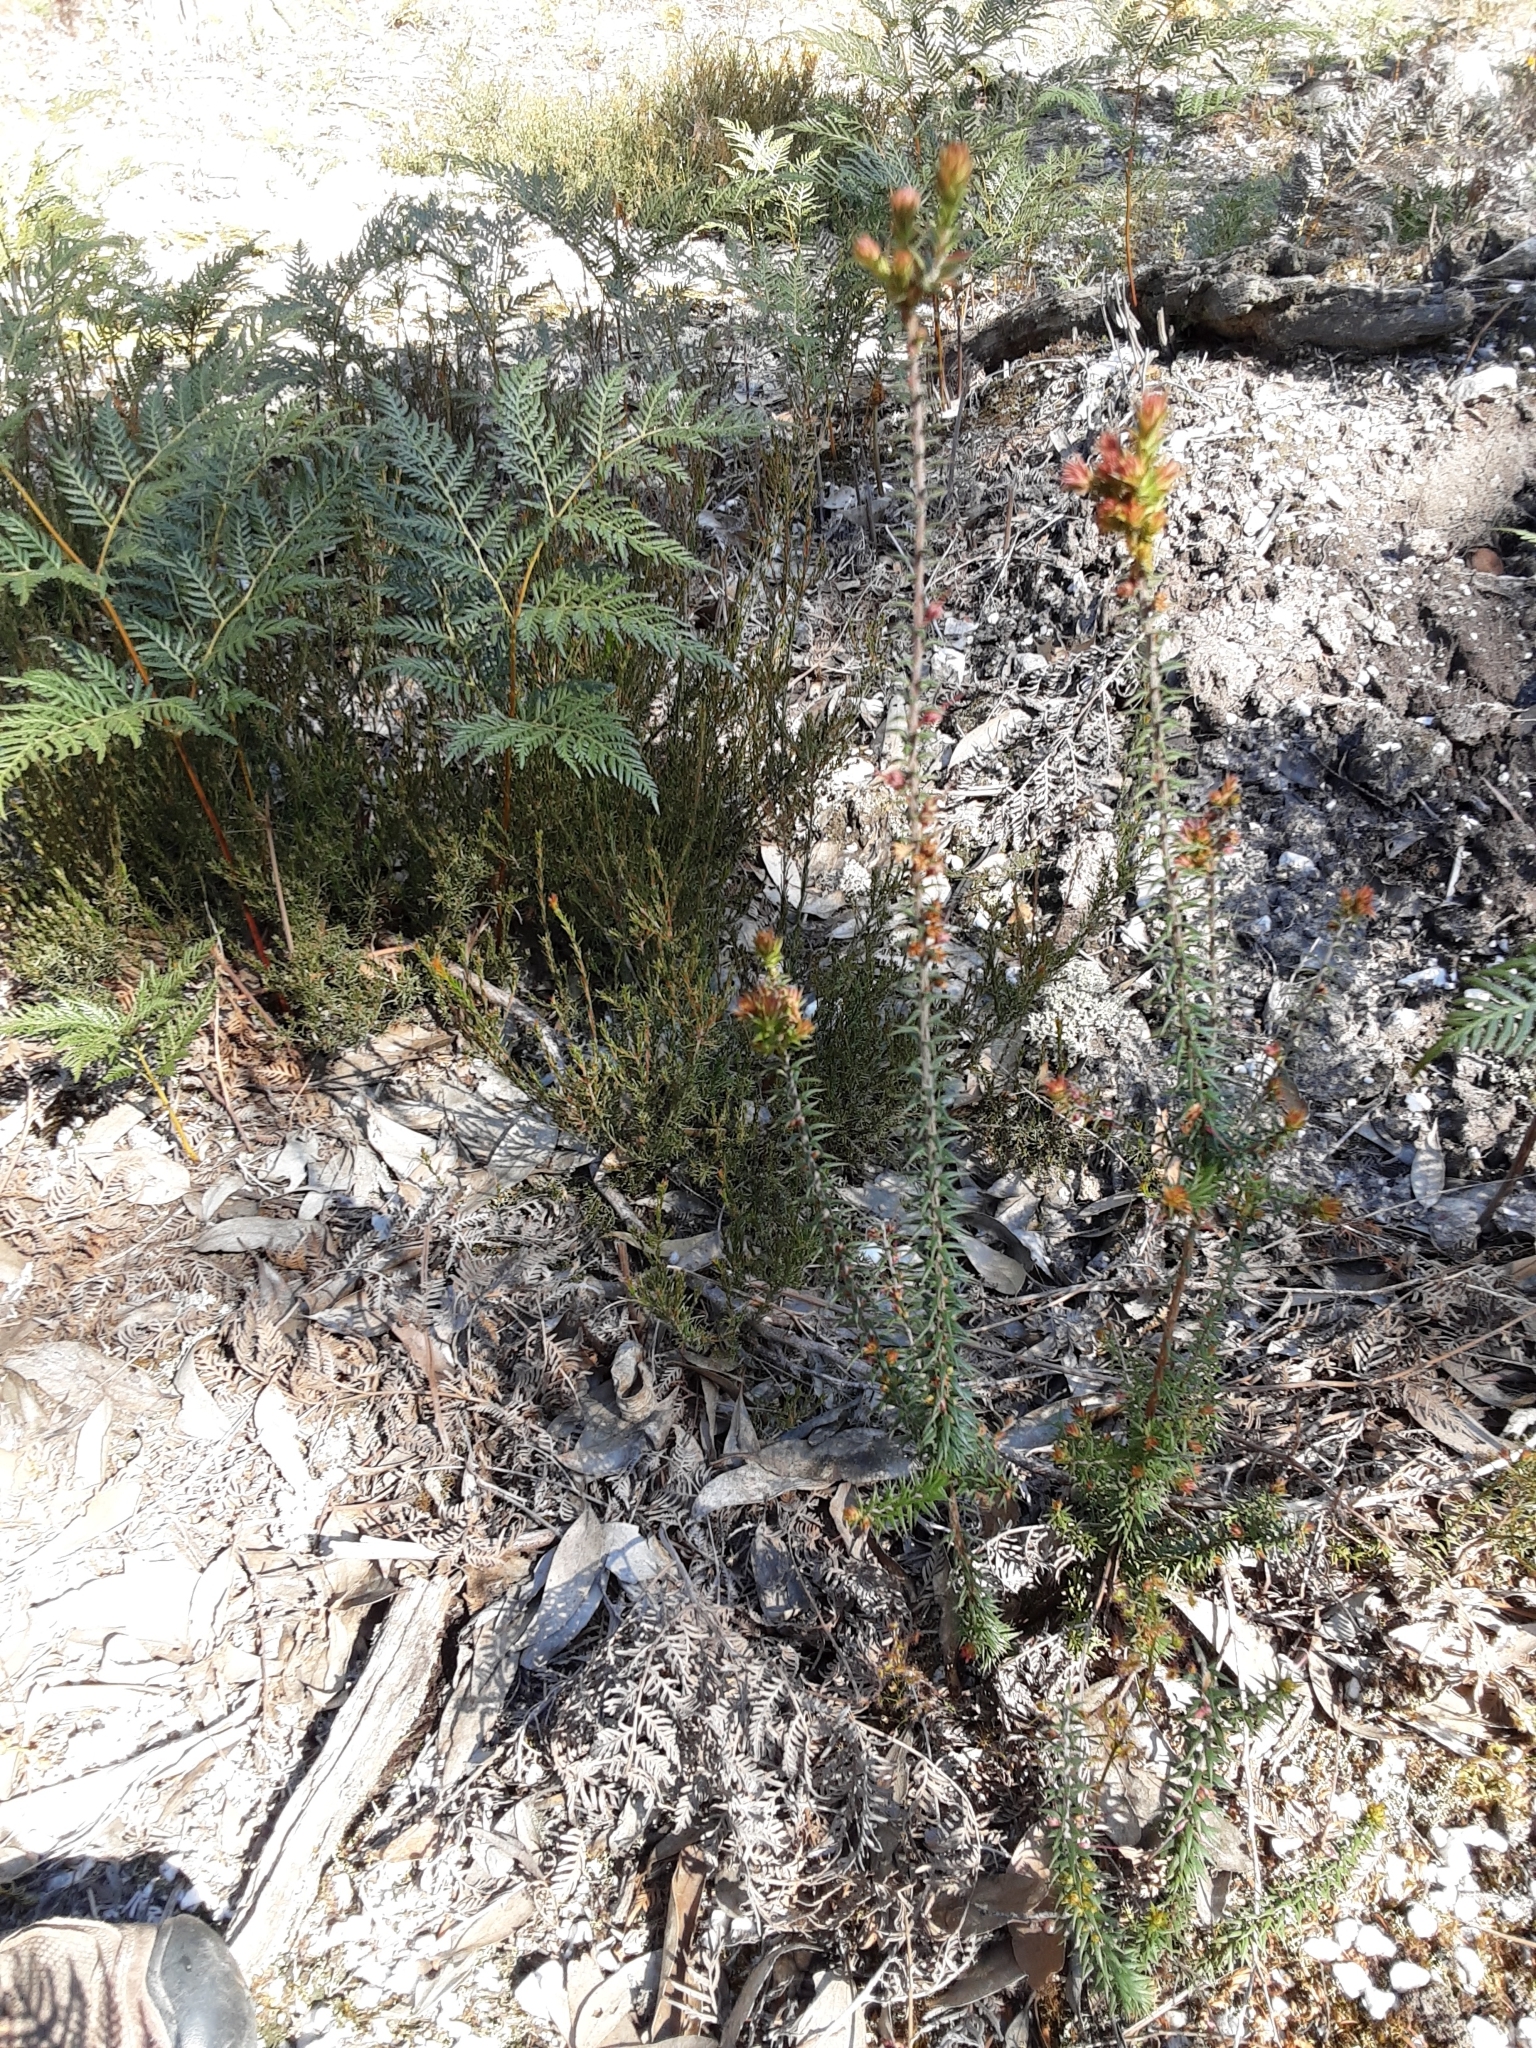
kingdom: Plantae
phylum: Tracheophyta
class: Magnoliopsida
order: Ericales
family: Ericaceae
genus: Epacris
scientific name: Epacris impressa
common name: Common-heath
